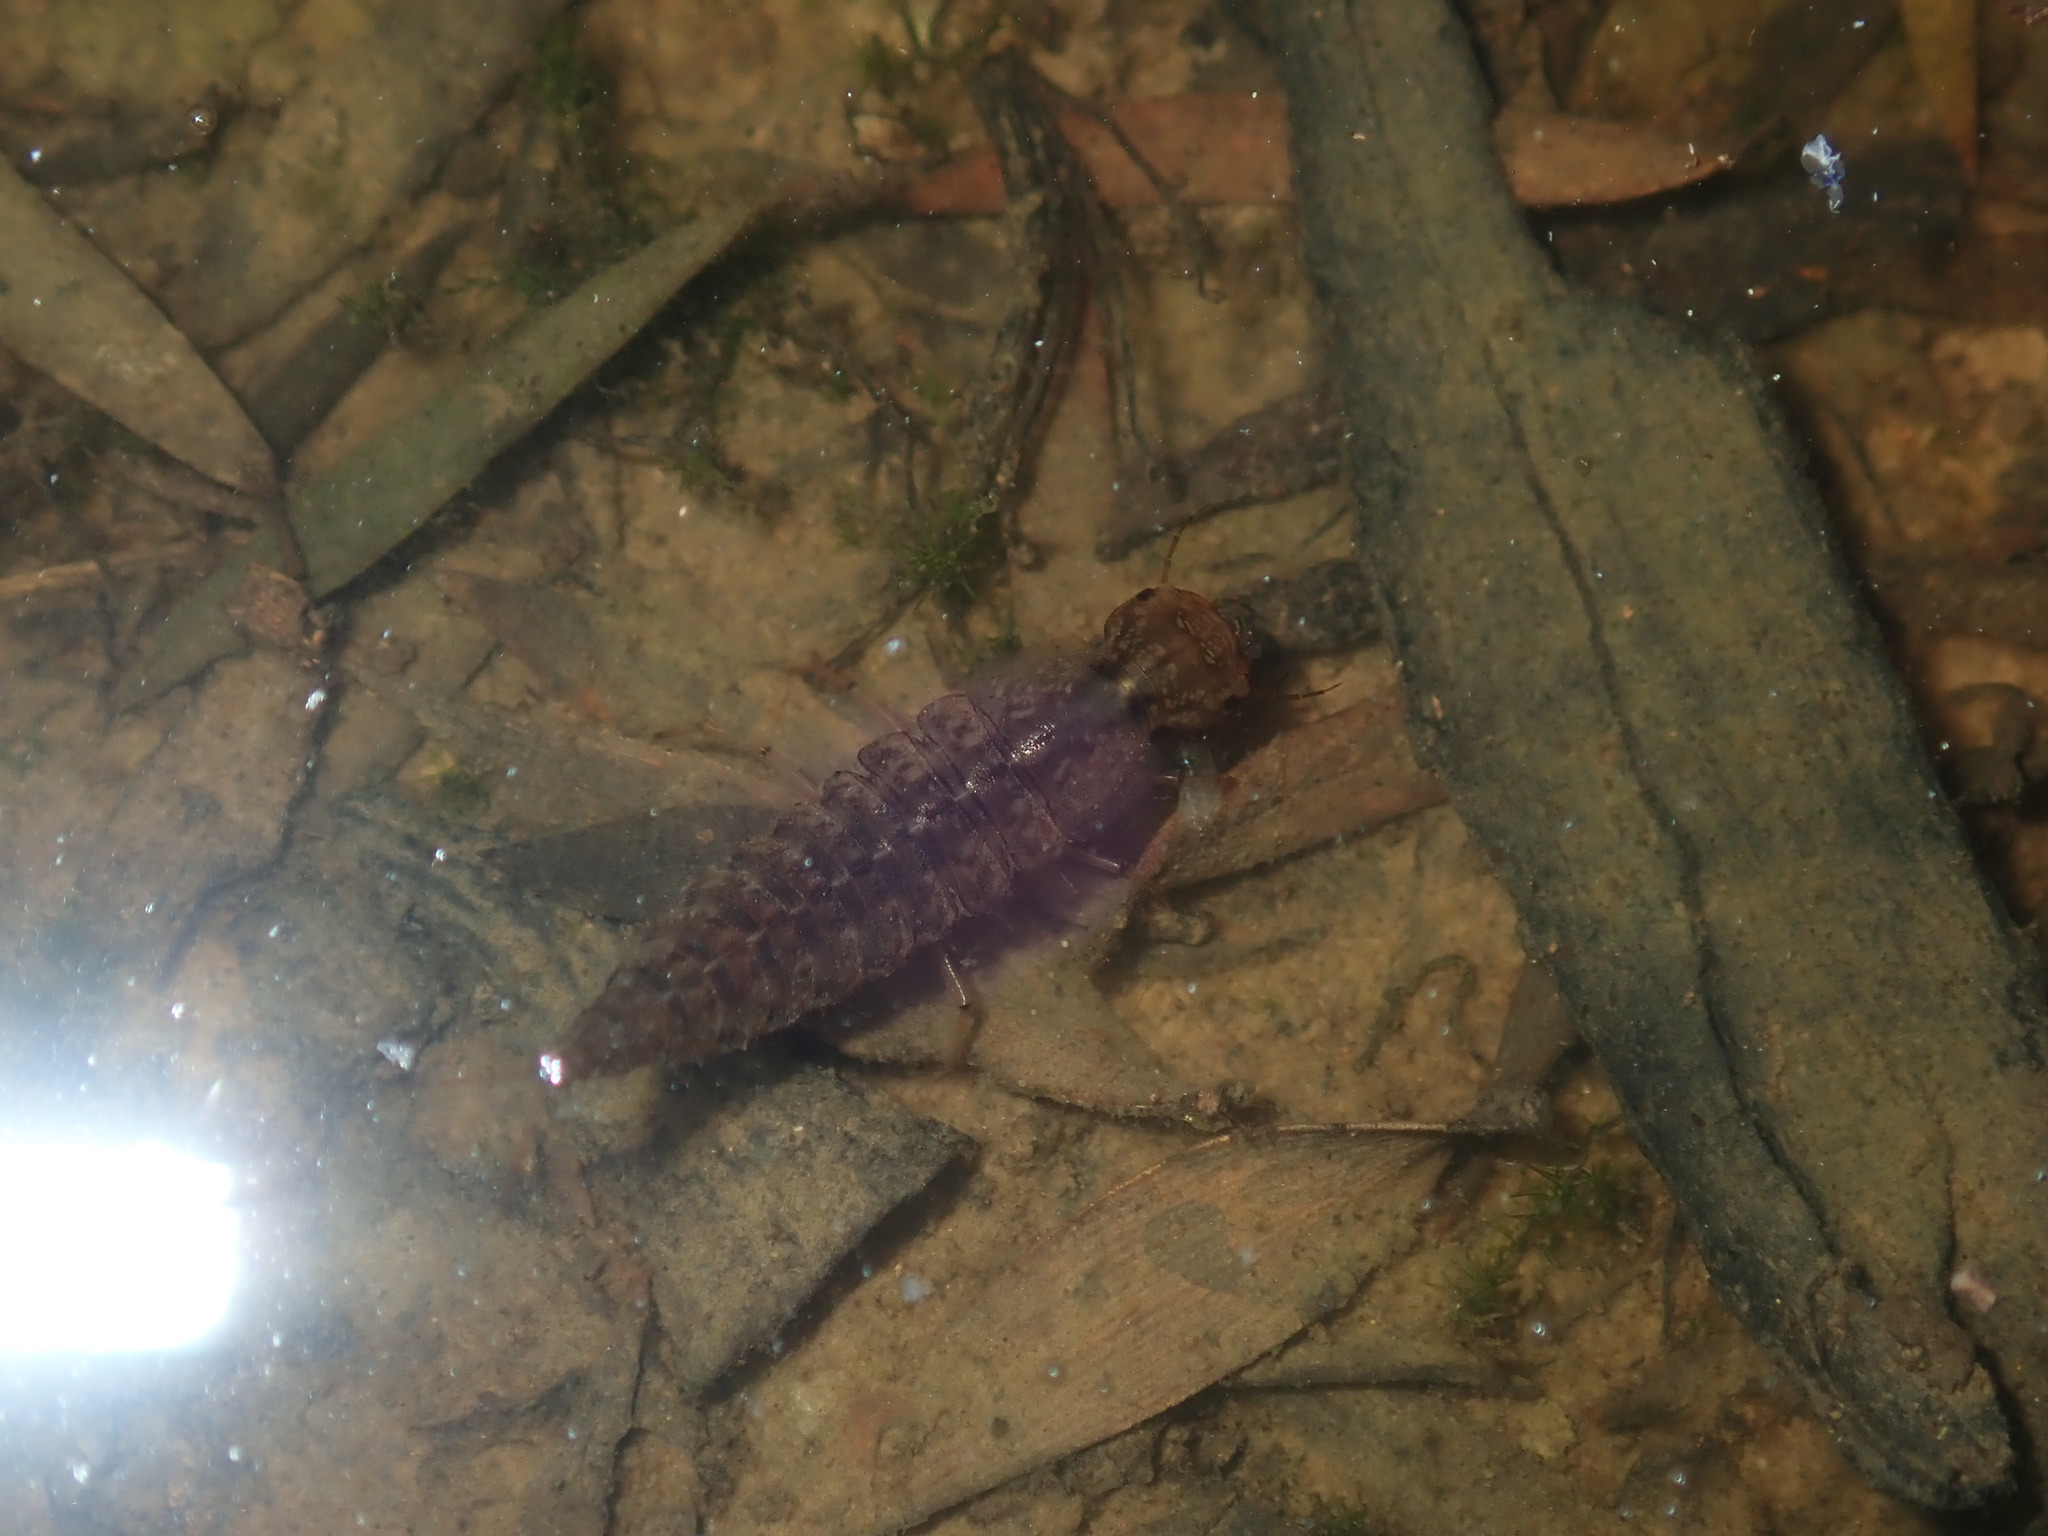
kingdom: Animalia
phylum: Arthropoda
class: Insecta
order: Coleoptera
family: Dytiscidae
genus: Rhantus
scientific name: Rhantus suturalis
